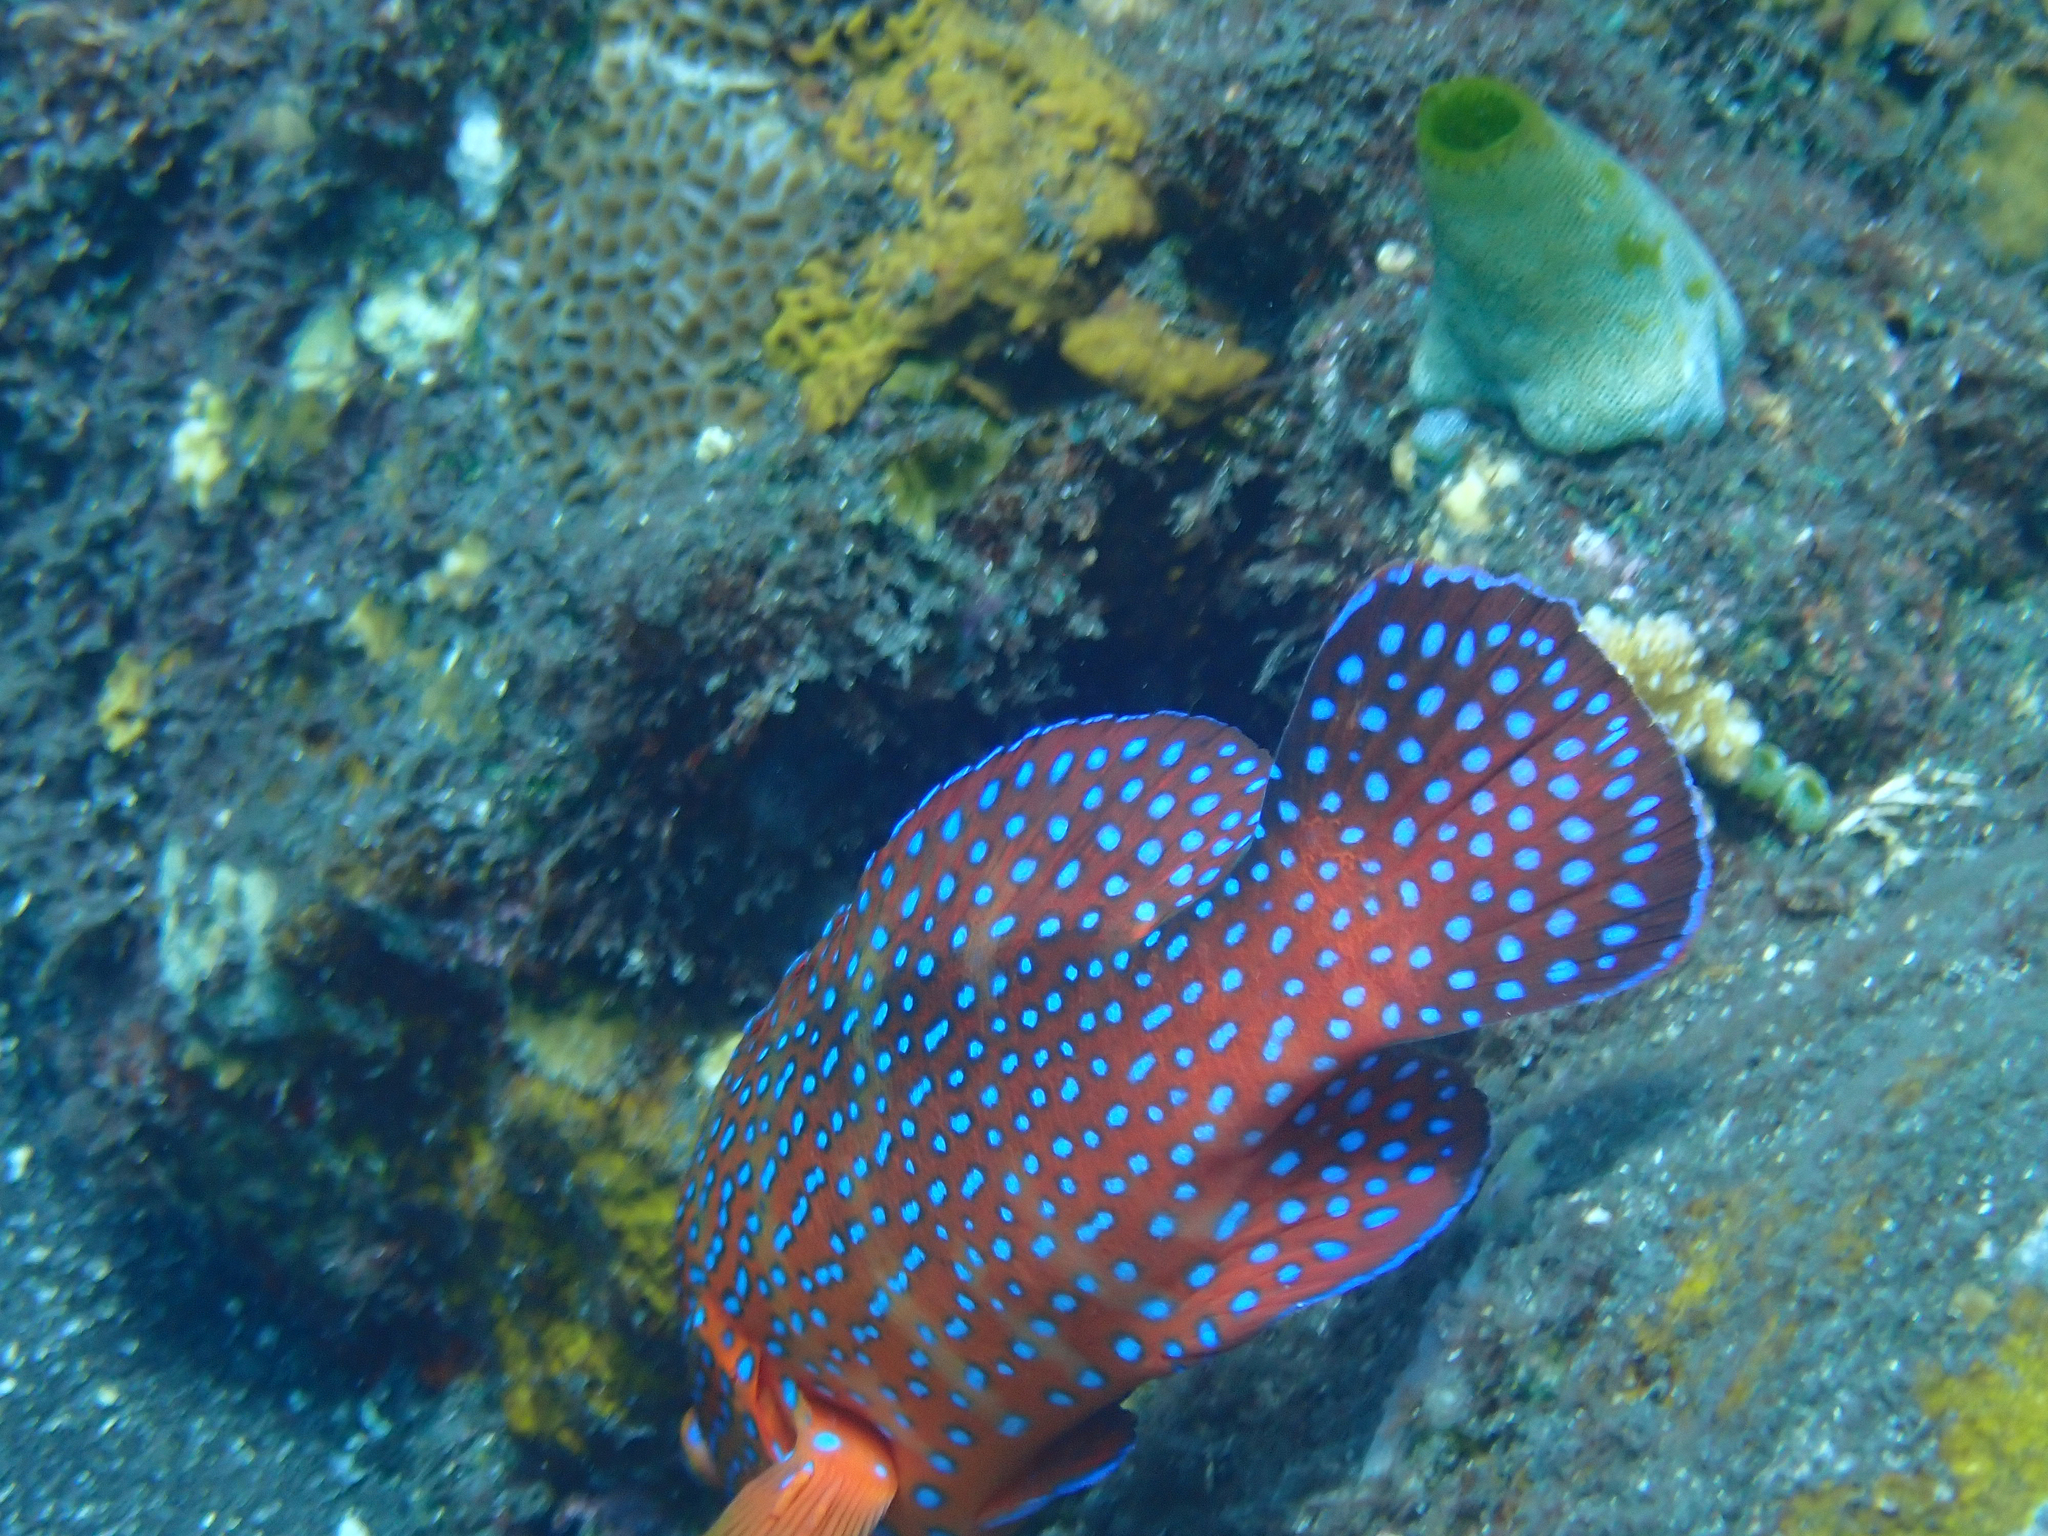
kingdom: Animalia
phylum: Chordata
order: Perciformes
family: Serranidae
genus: Cephalopholis
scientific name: Cephalopholis miniata
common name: Coral hind
